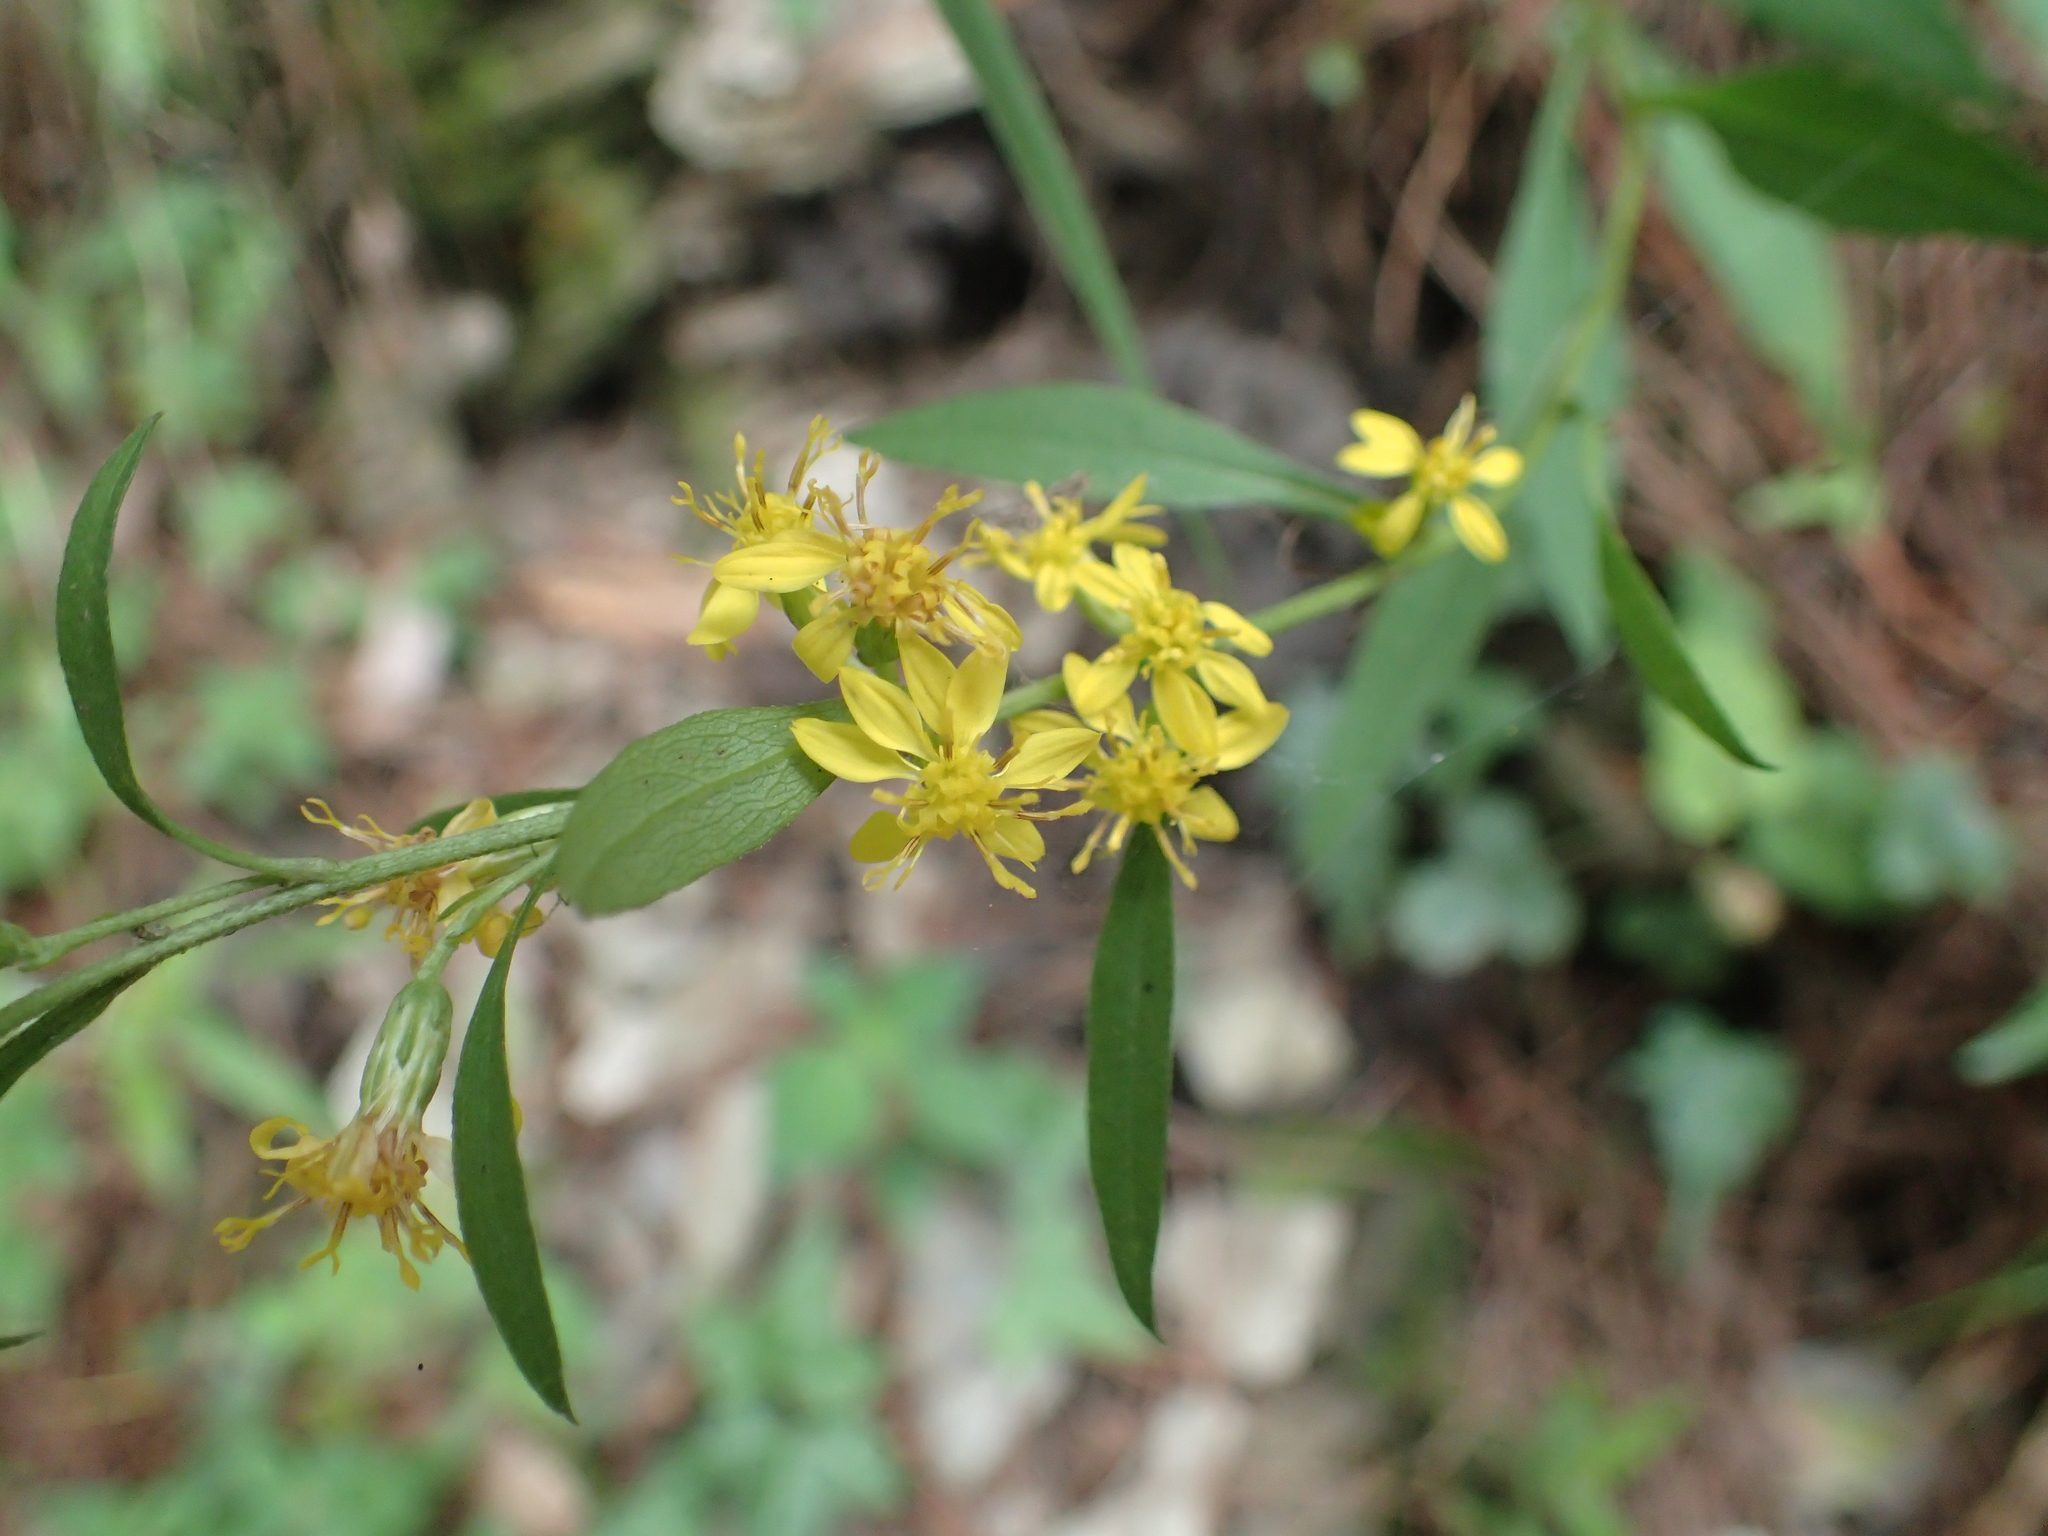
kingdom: Plantae
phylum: Tracheophyta
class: Magnoliopsida
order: Asterales
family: Asteraceae
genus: Solidago
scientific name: Solidago decurrens
